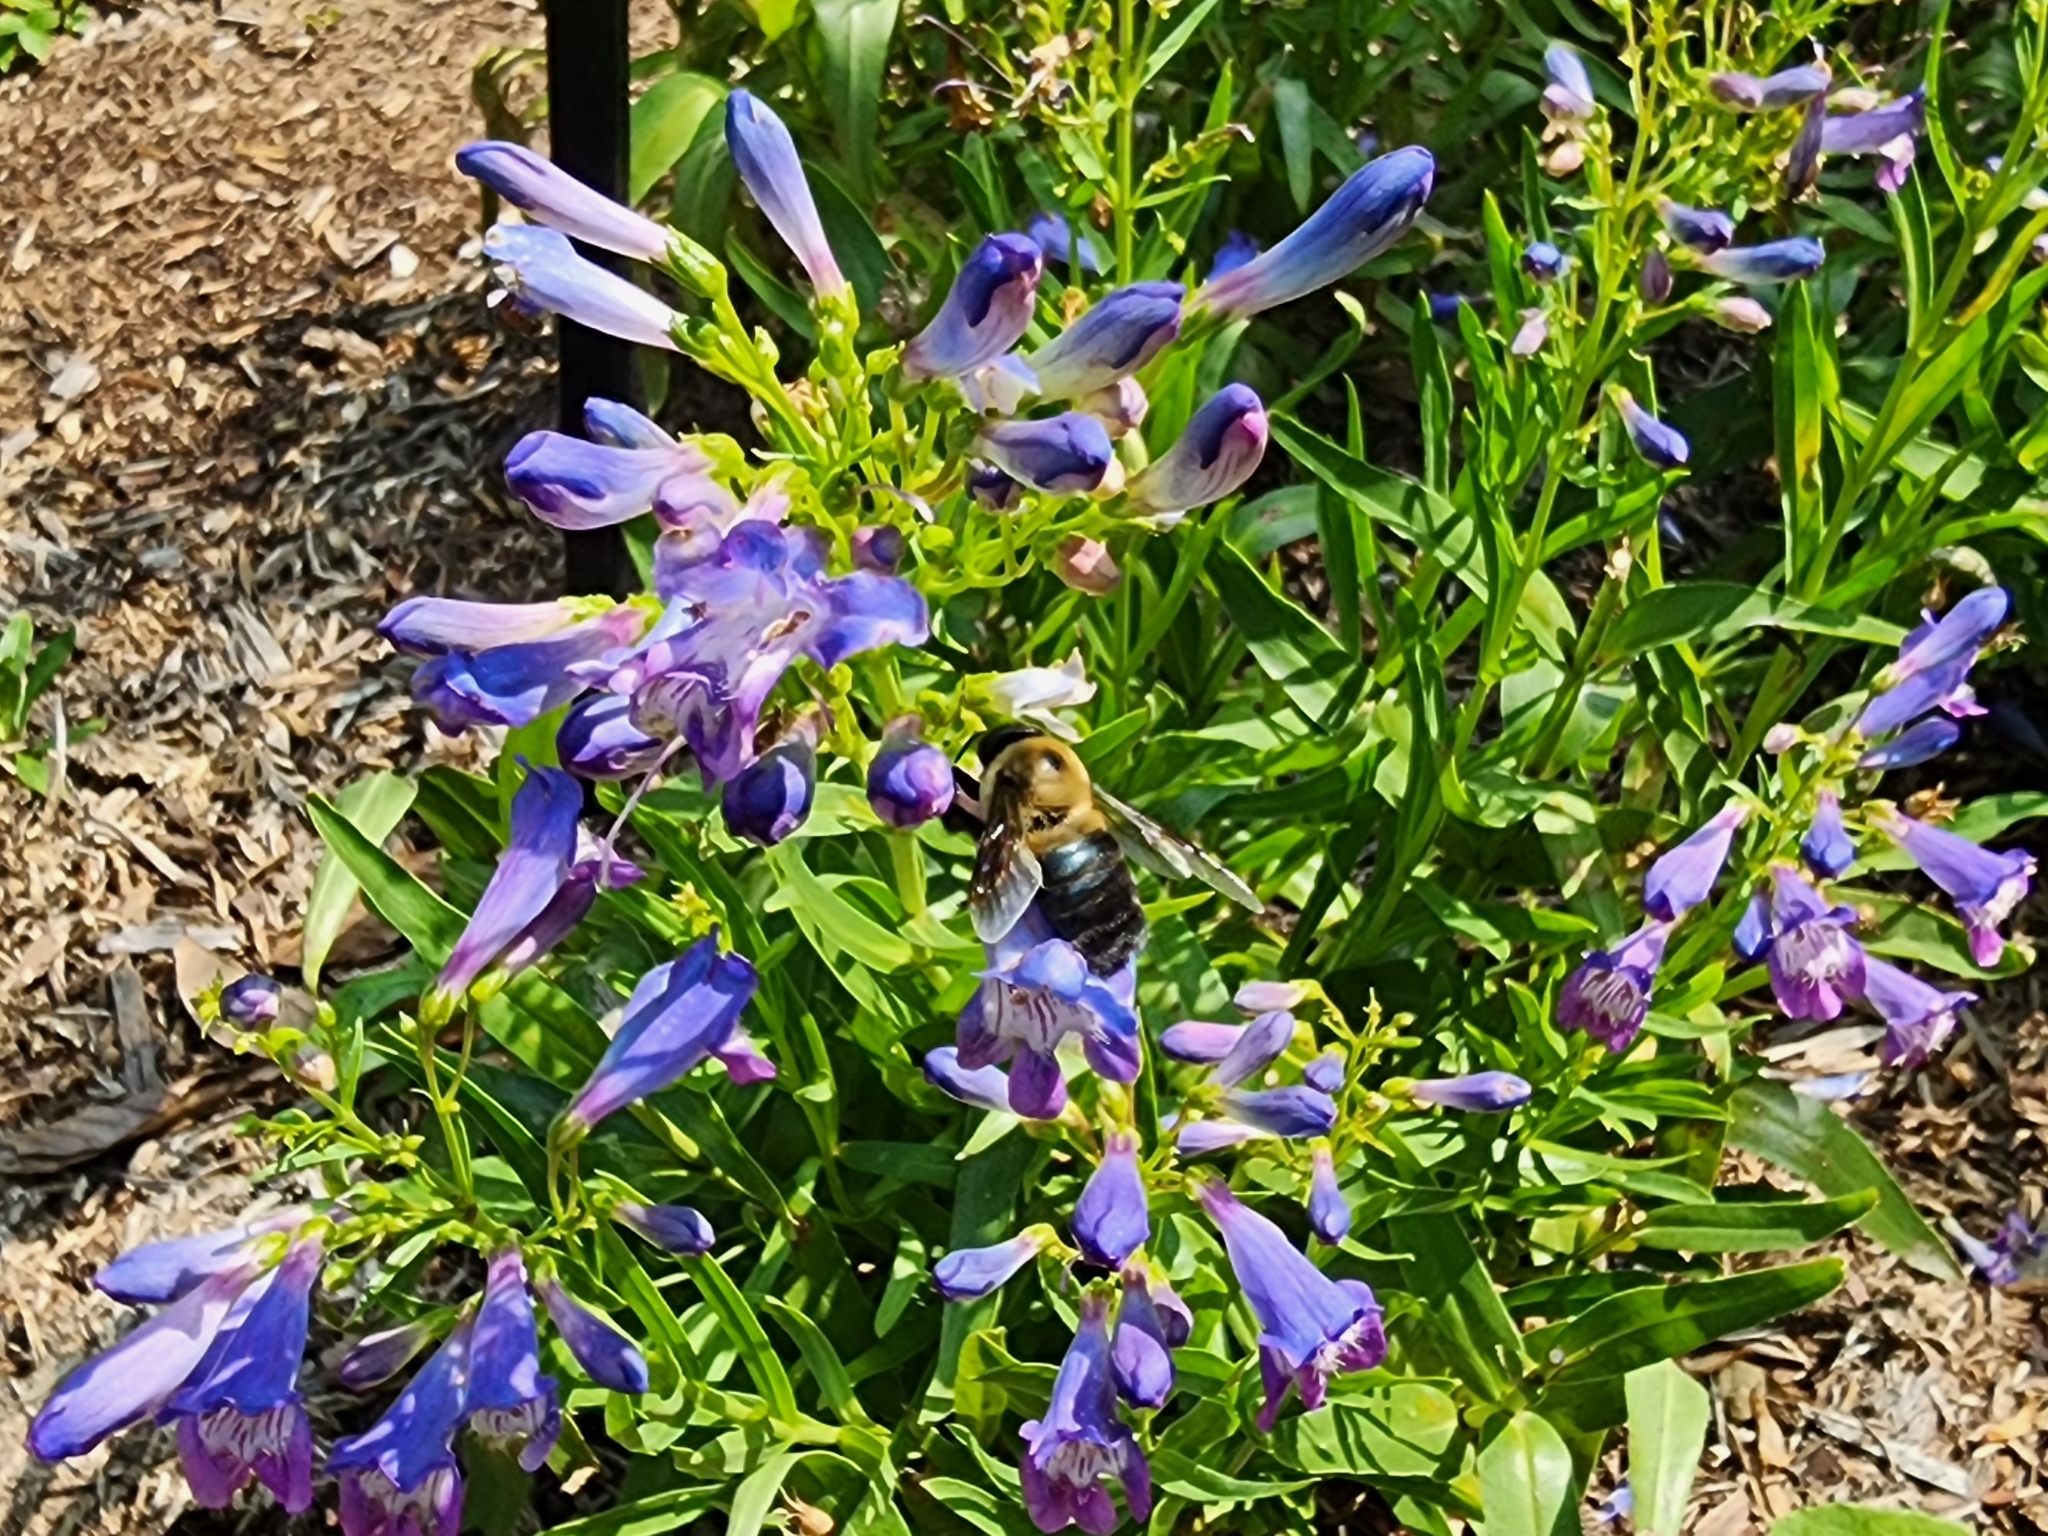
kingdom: Animalia
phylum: Arthropoda
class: Insecta
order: Hymenoptera
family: Apidae
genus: Xylocopa
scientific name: Xylocopa virginica
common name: Carpenter bee
